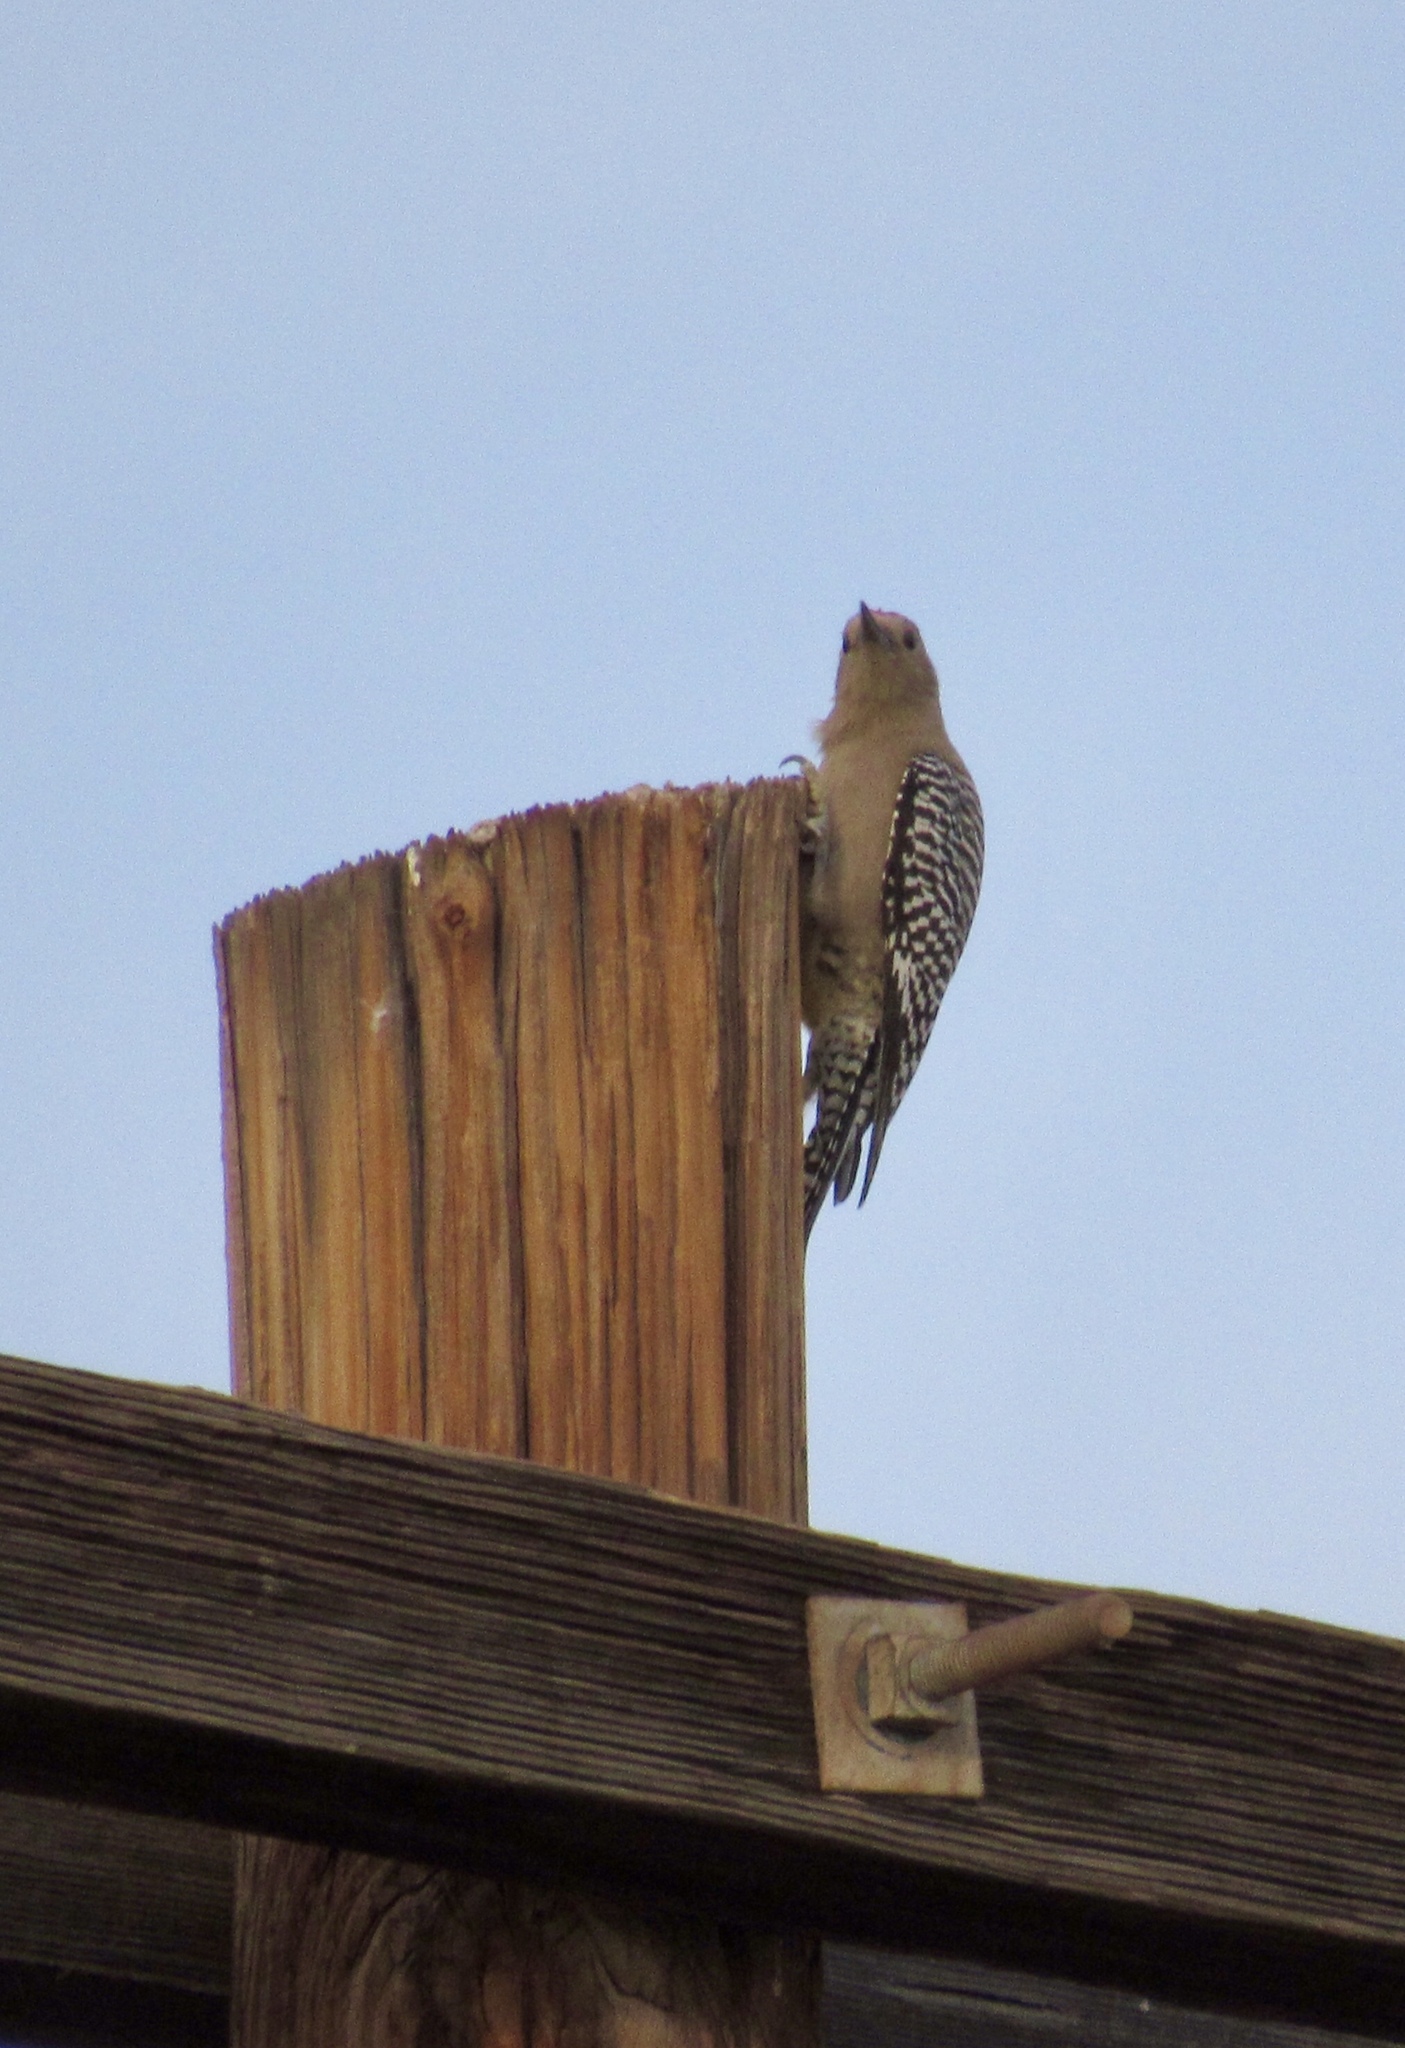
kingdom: Animalia
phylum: Chordata
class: Aves
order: Piciformes
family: Picidae
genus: Melanerpes
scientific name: Melanerpes uropygialis
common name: Gila woodpecker
